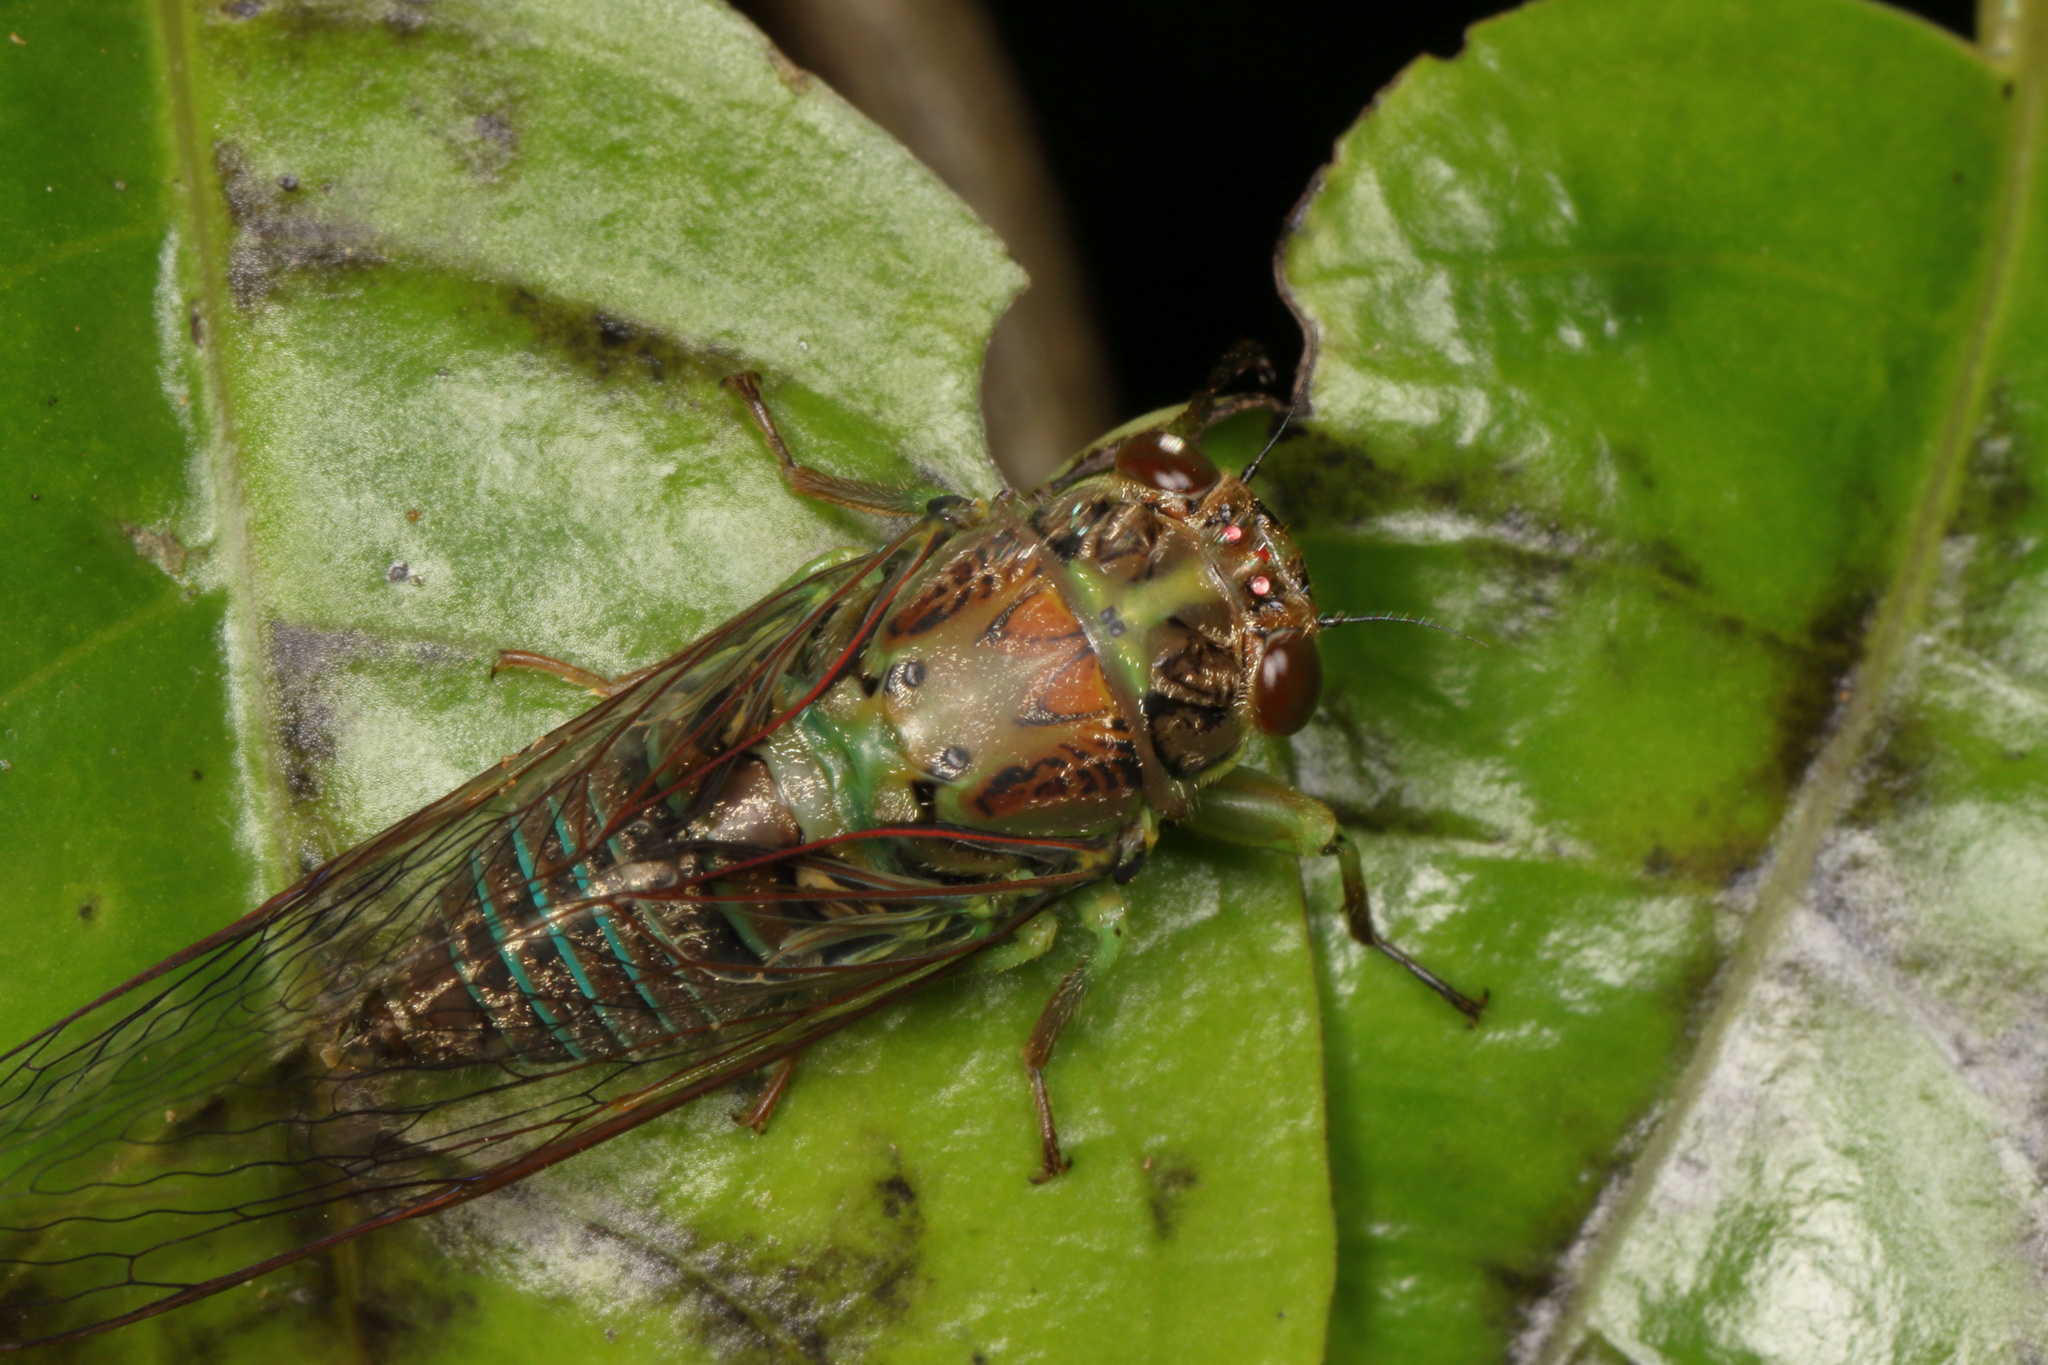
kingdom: Animalia
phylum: Arthropoda
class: Insecta
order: Hemiptera
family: Cicadidae
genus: Kikihia
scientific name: Kikihia scutellaris
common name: Lesser bronze cicada
